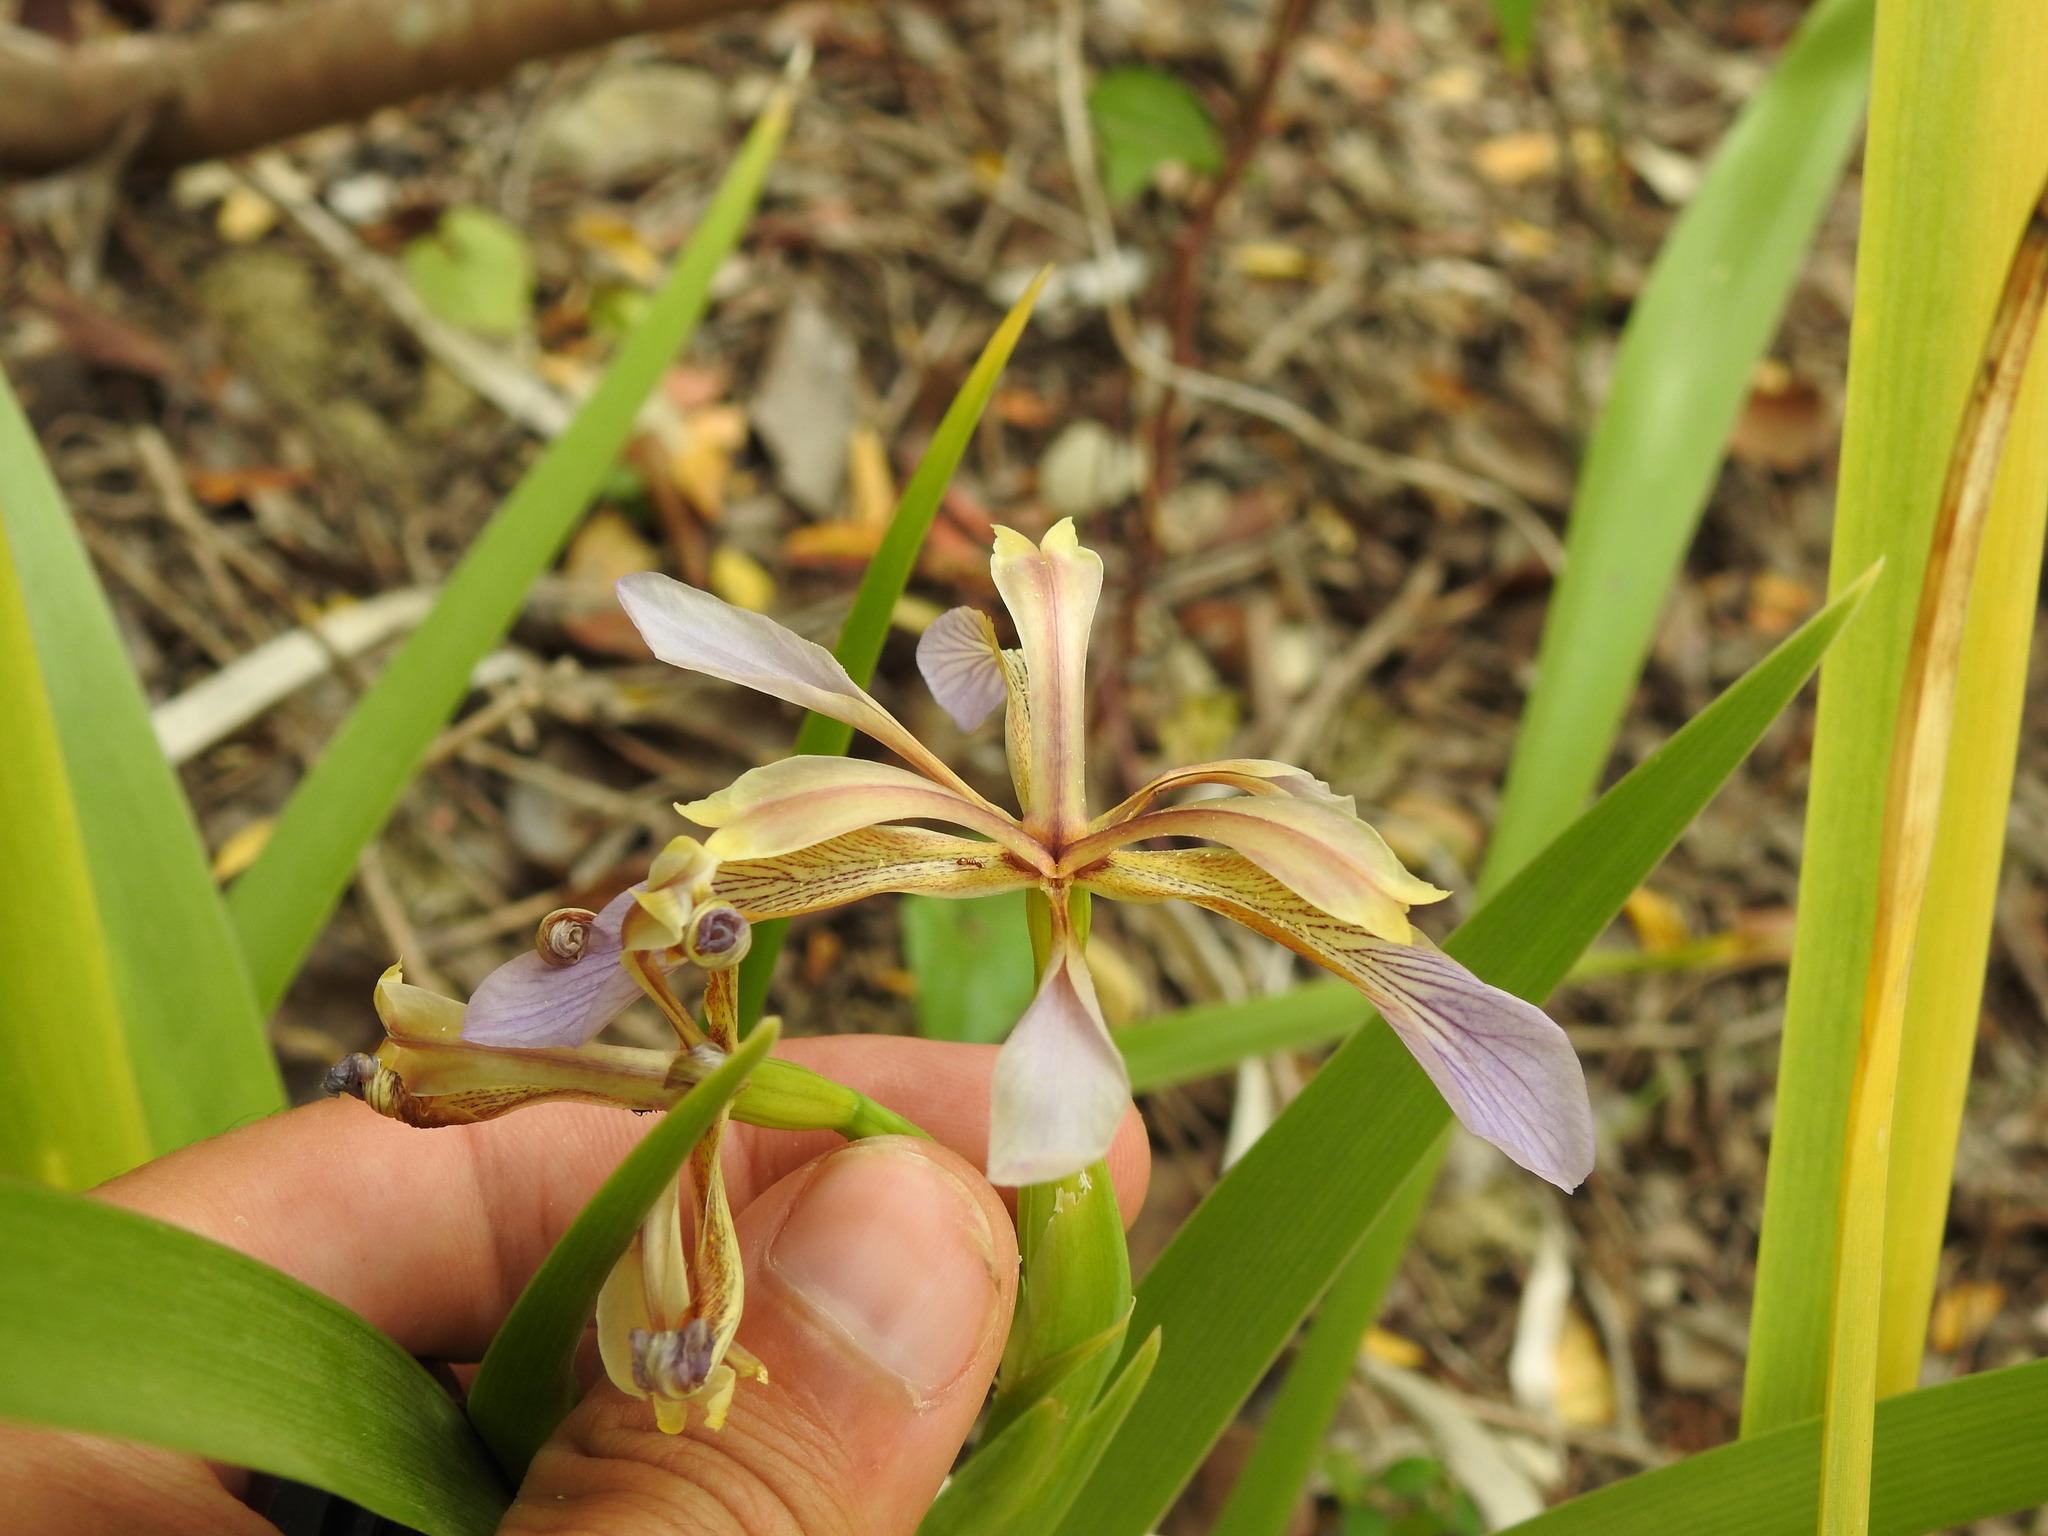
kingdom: Plantae
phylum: Tracheophyta
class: Liliopsida
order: Asparagales
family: Iridaceae
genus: Iris
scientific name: Iris foetidissima
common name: Stinking iris
